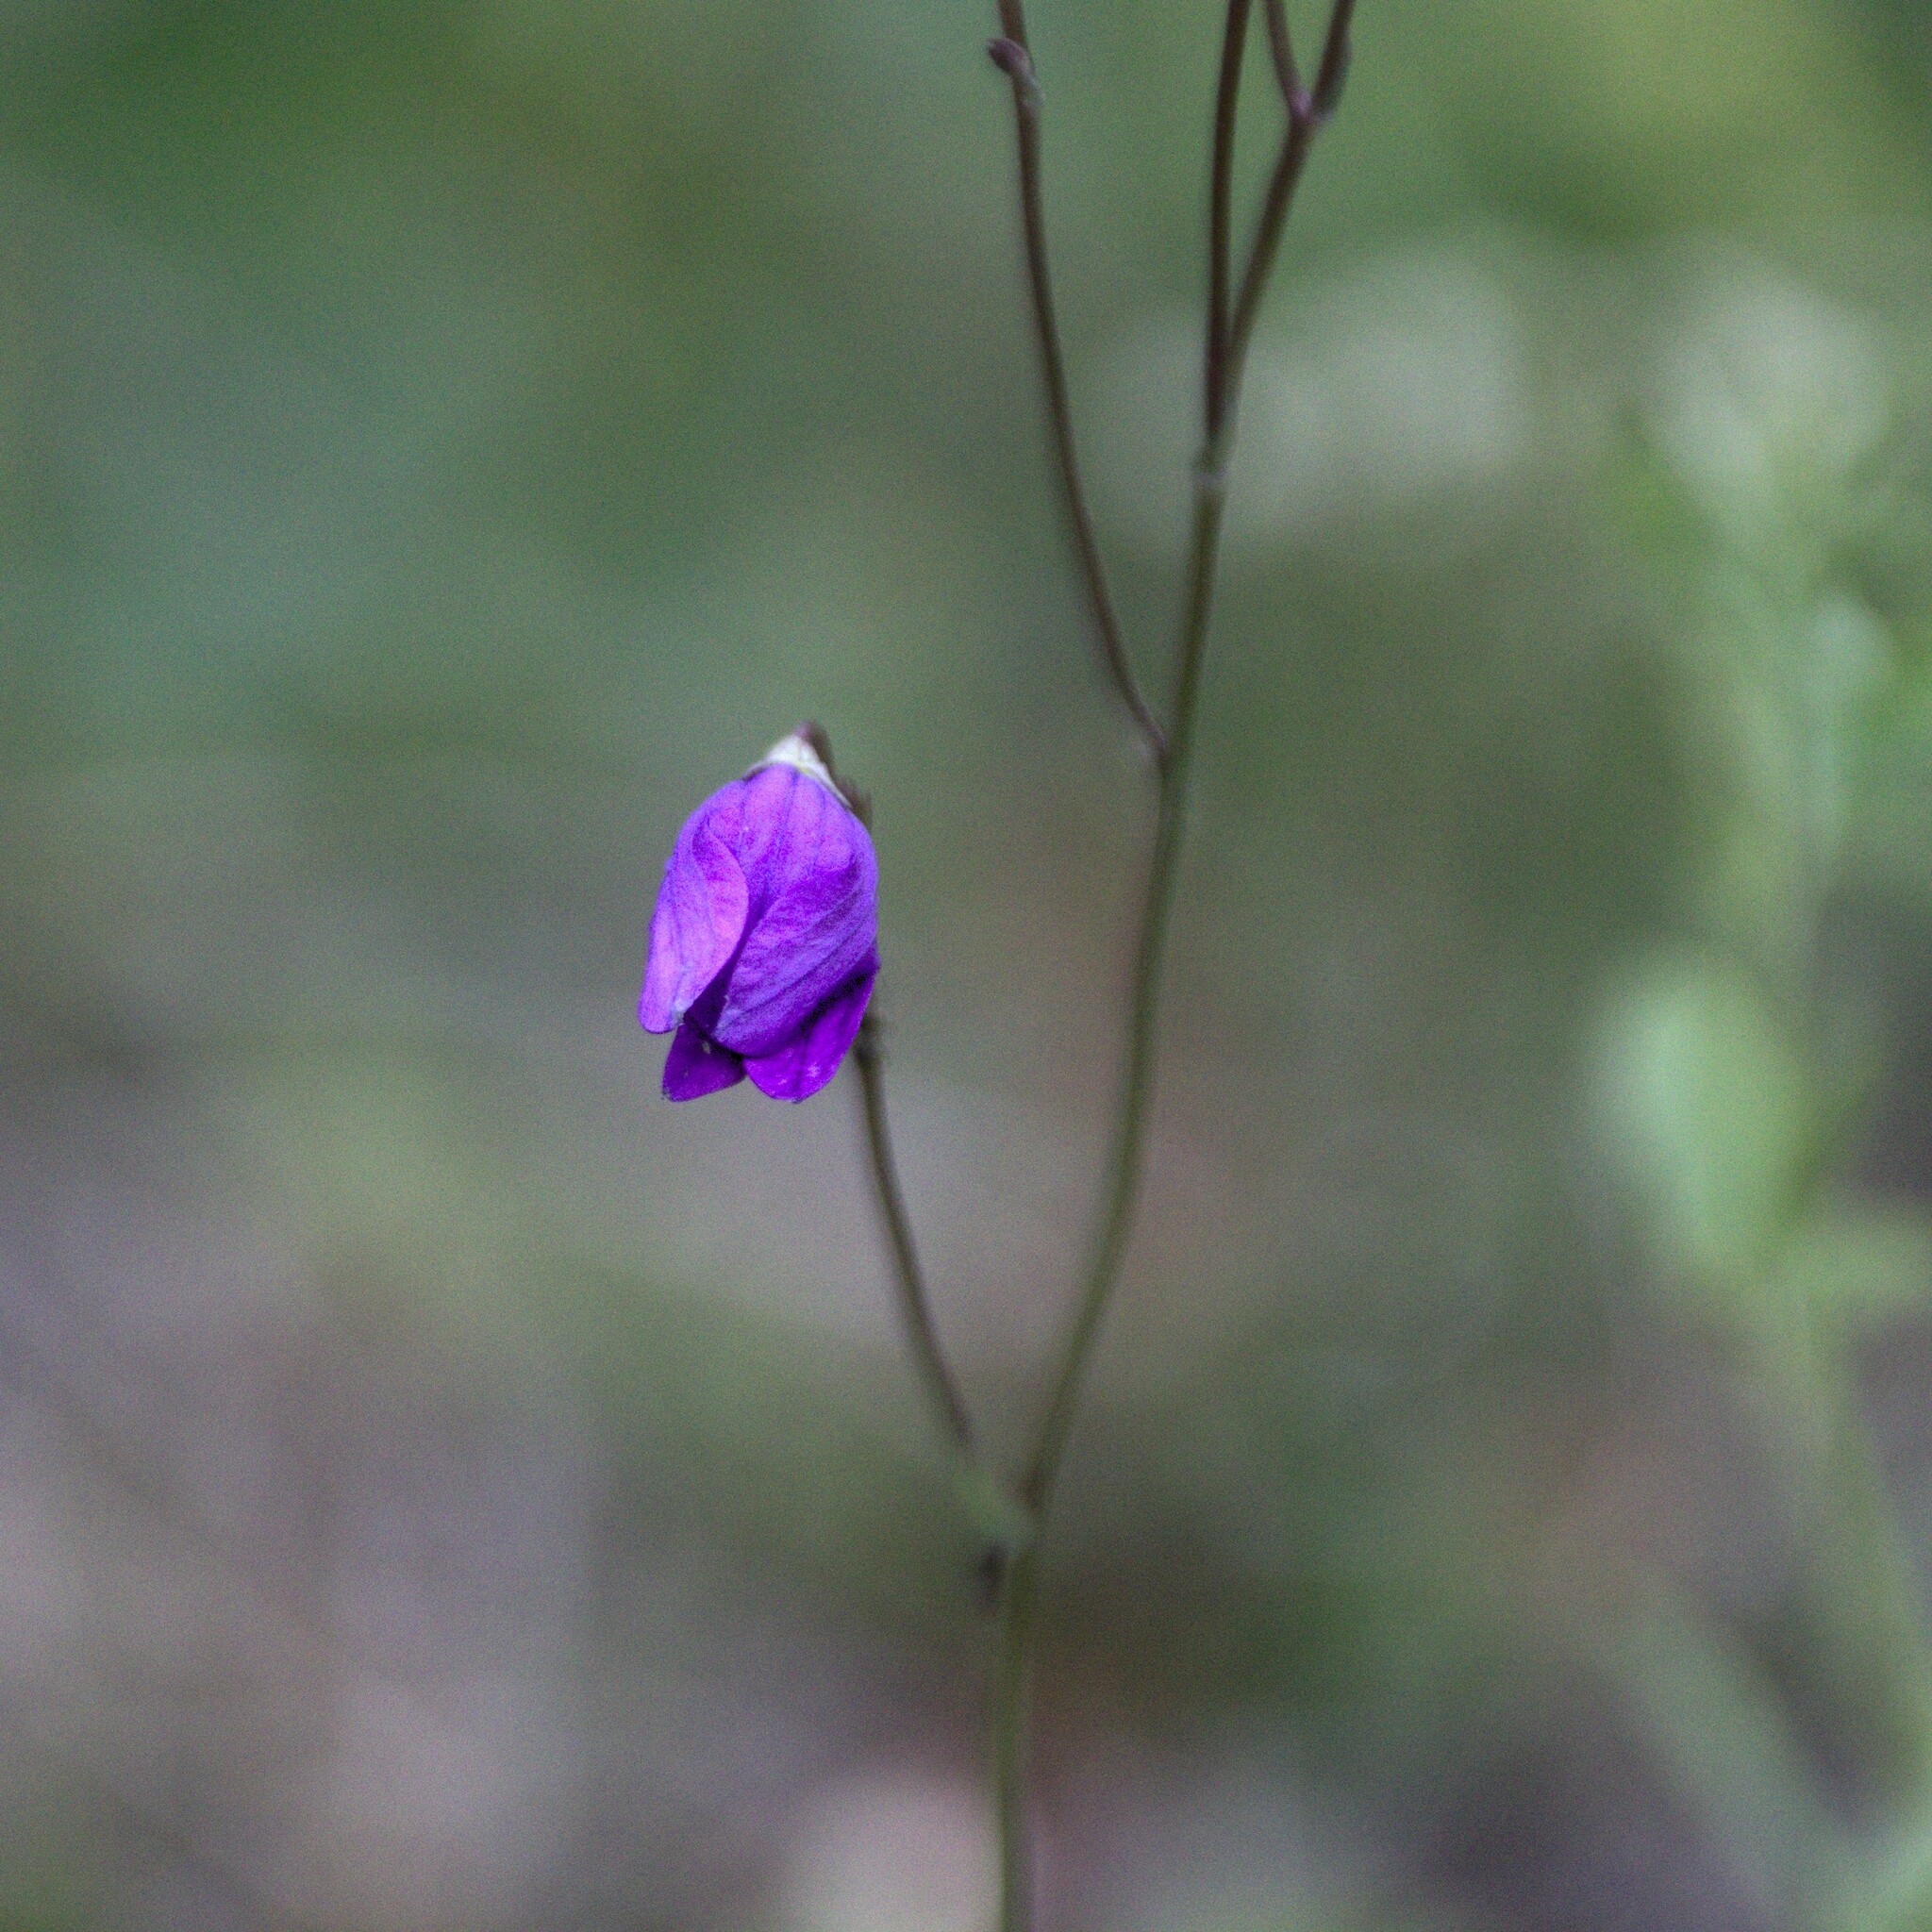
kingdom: Plantae
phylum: Tracheophyta
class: Magnoliopsida
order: Asterales
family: Campanulaceae
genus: Campanula
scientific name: Campanula patula
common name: Spreading bellflower
